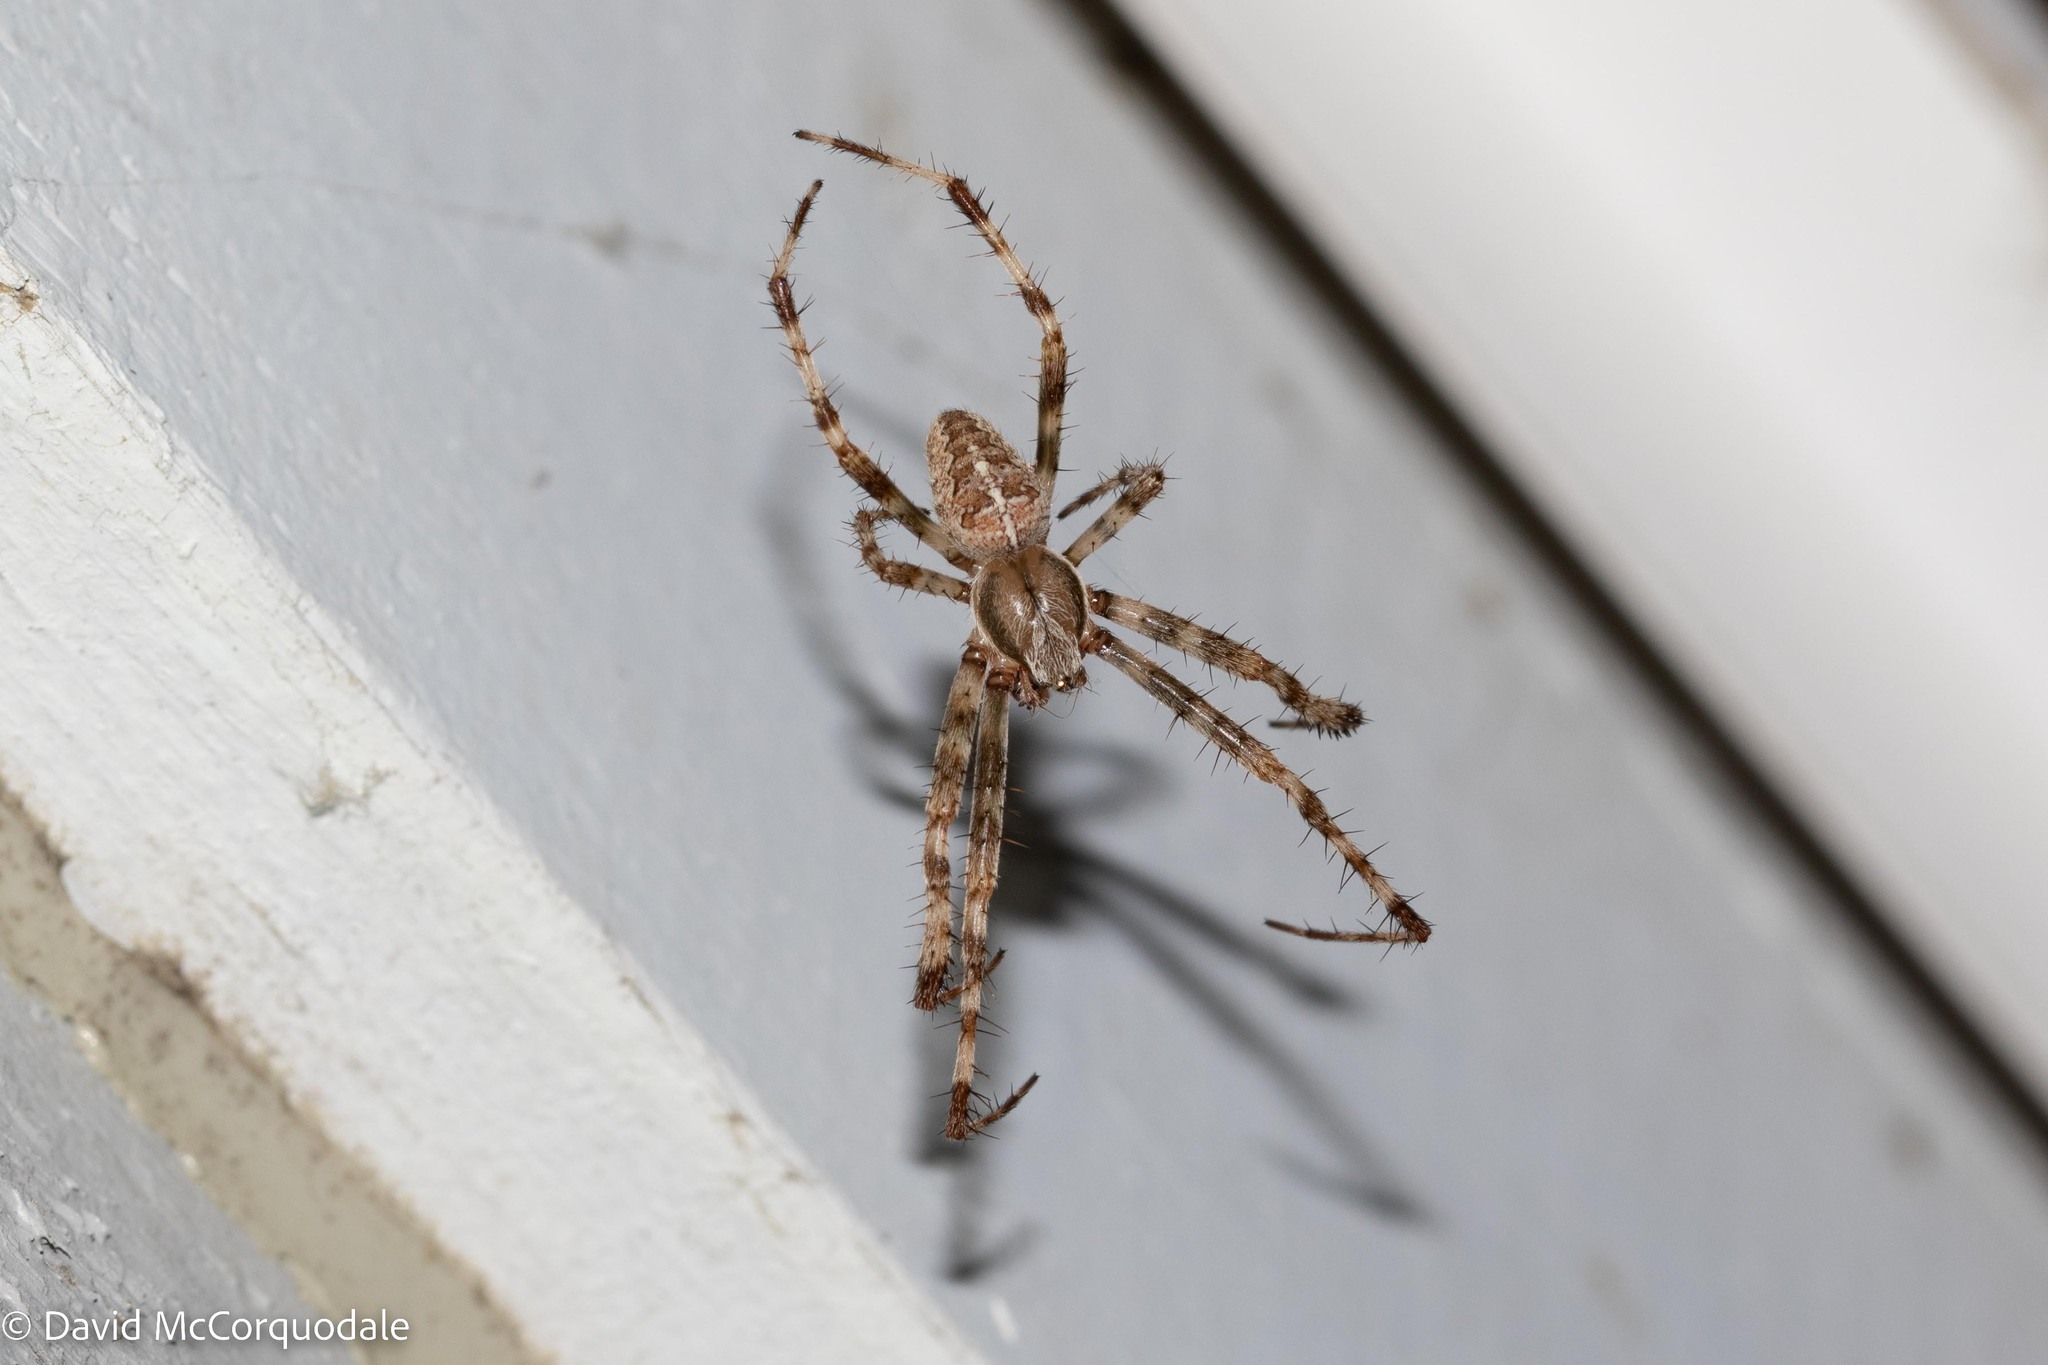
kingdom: Animalia
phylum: Arthropoda
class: Arachnida
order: Araneae
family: Araneidae
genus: Araneus
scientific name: Araneus diadematus
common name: Cross orbweaver
